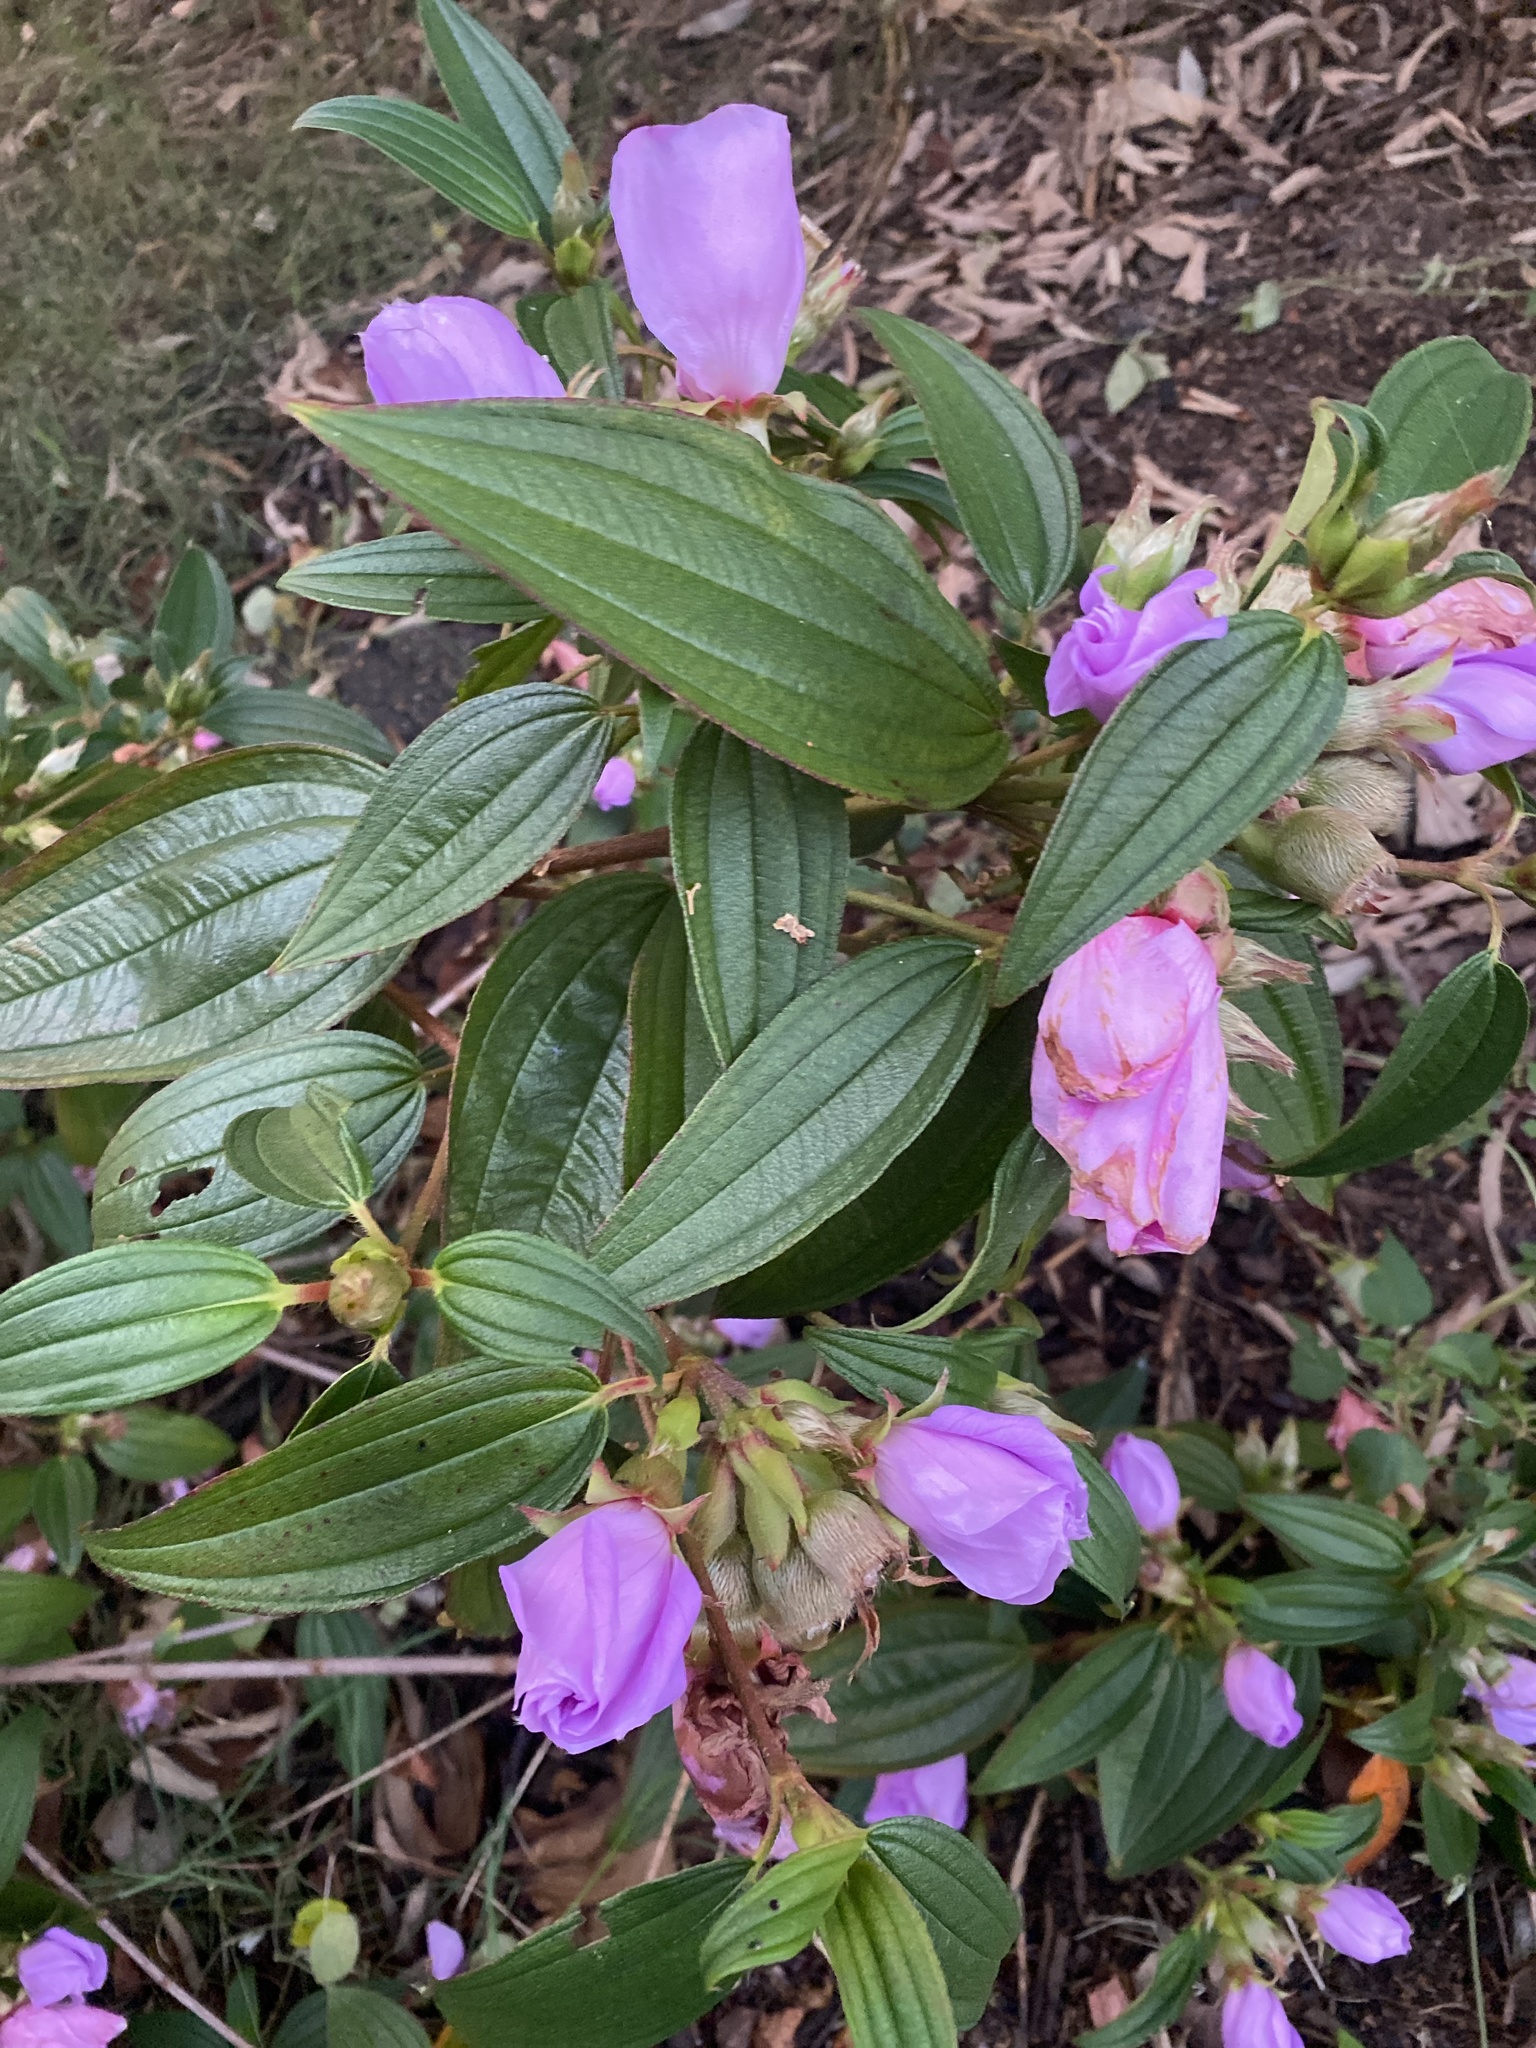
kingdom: Plantae
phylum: Tracheophyta
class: Magnoliopsida
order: Myrtales
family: Melastomataceae
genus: Melastoma
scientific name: Melastoma malabathricum
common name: Indian-rhododendron
